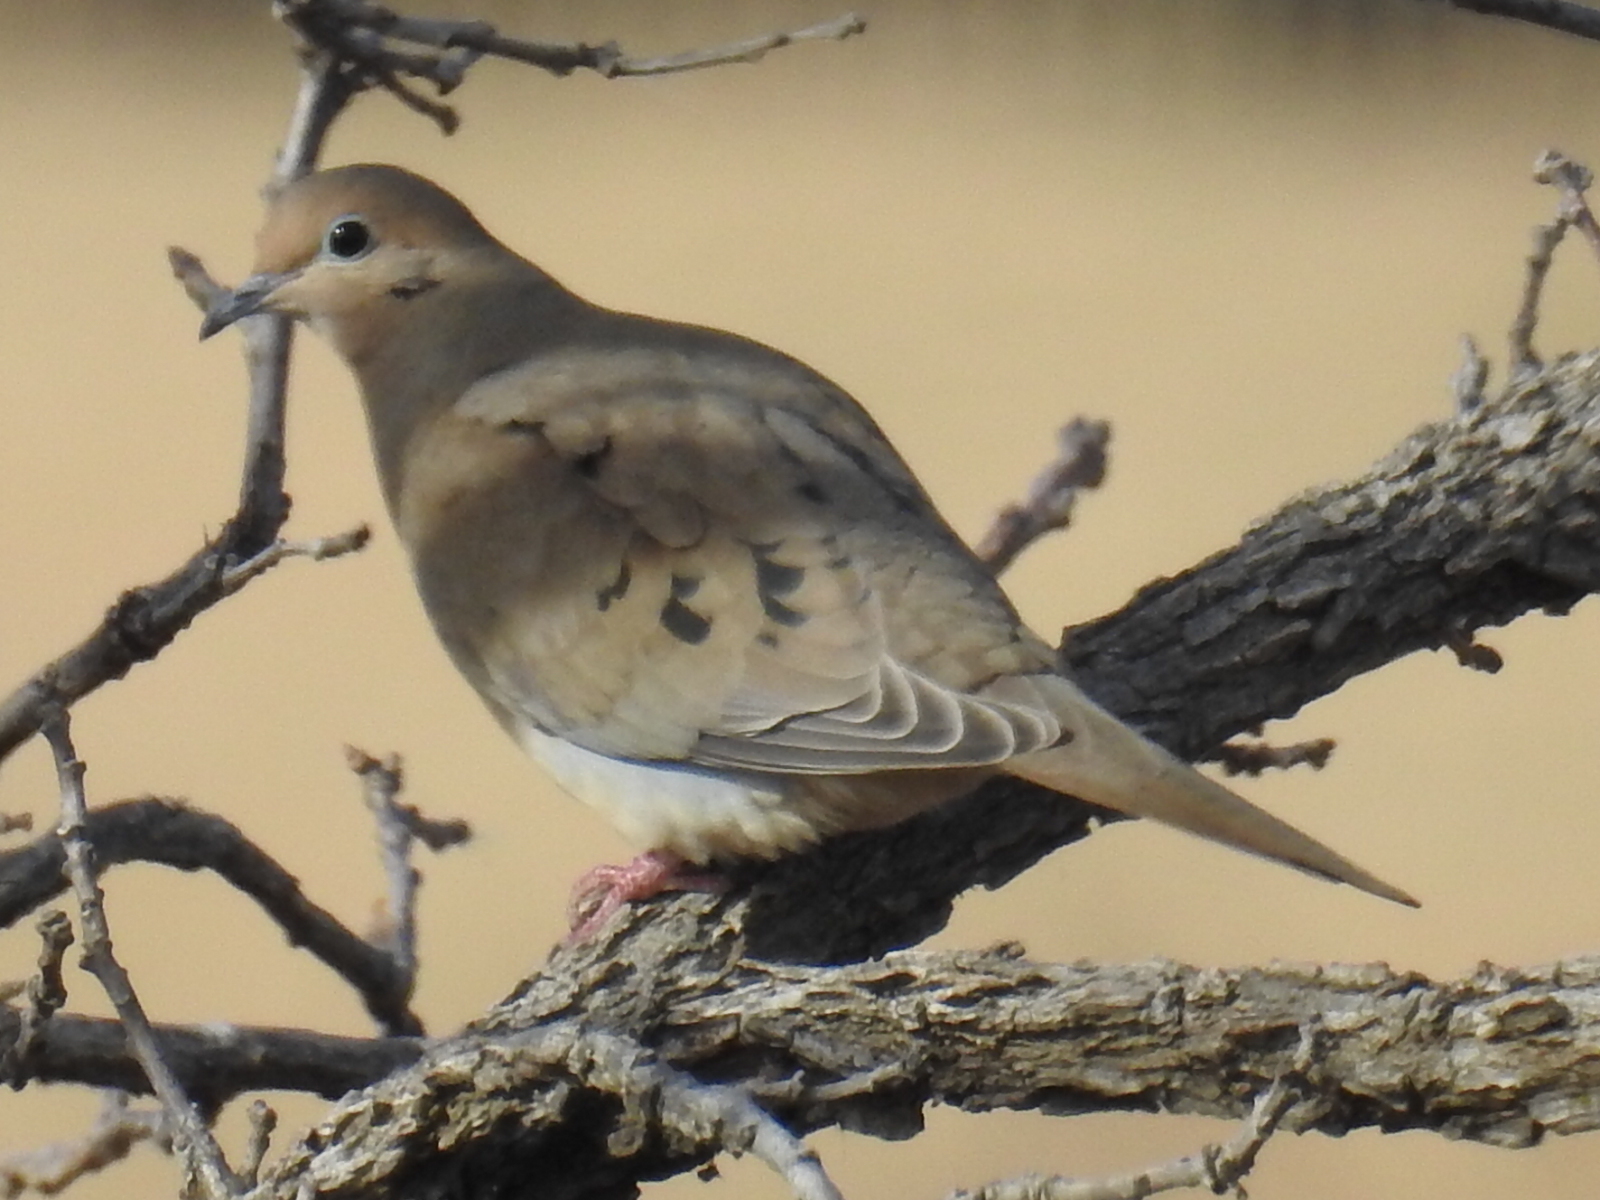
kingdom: Animalia
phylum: Chordata
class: Aves
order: Columbiformes
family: Columbidae
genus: Zenaida
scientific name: Zenaida macroura
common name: Mourning dove
